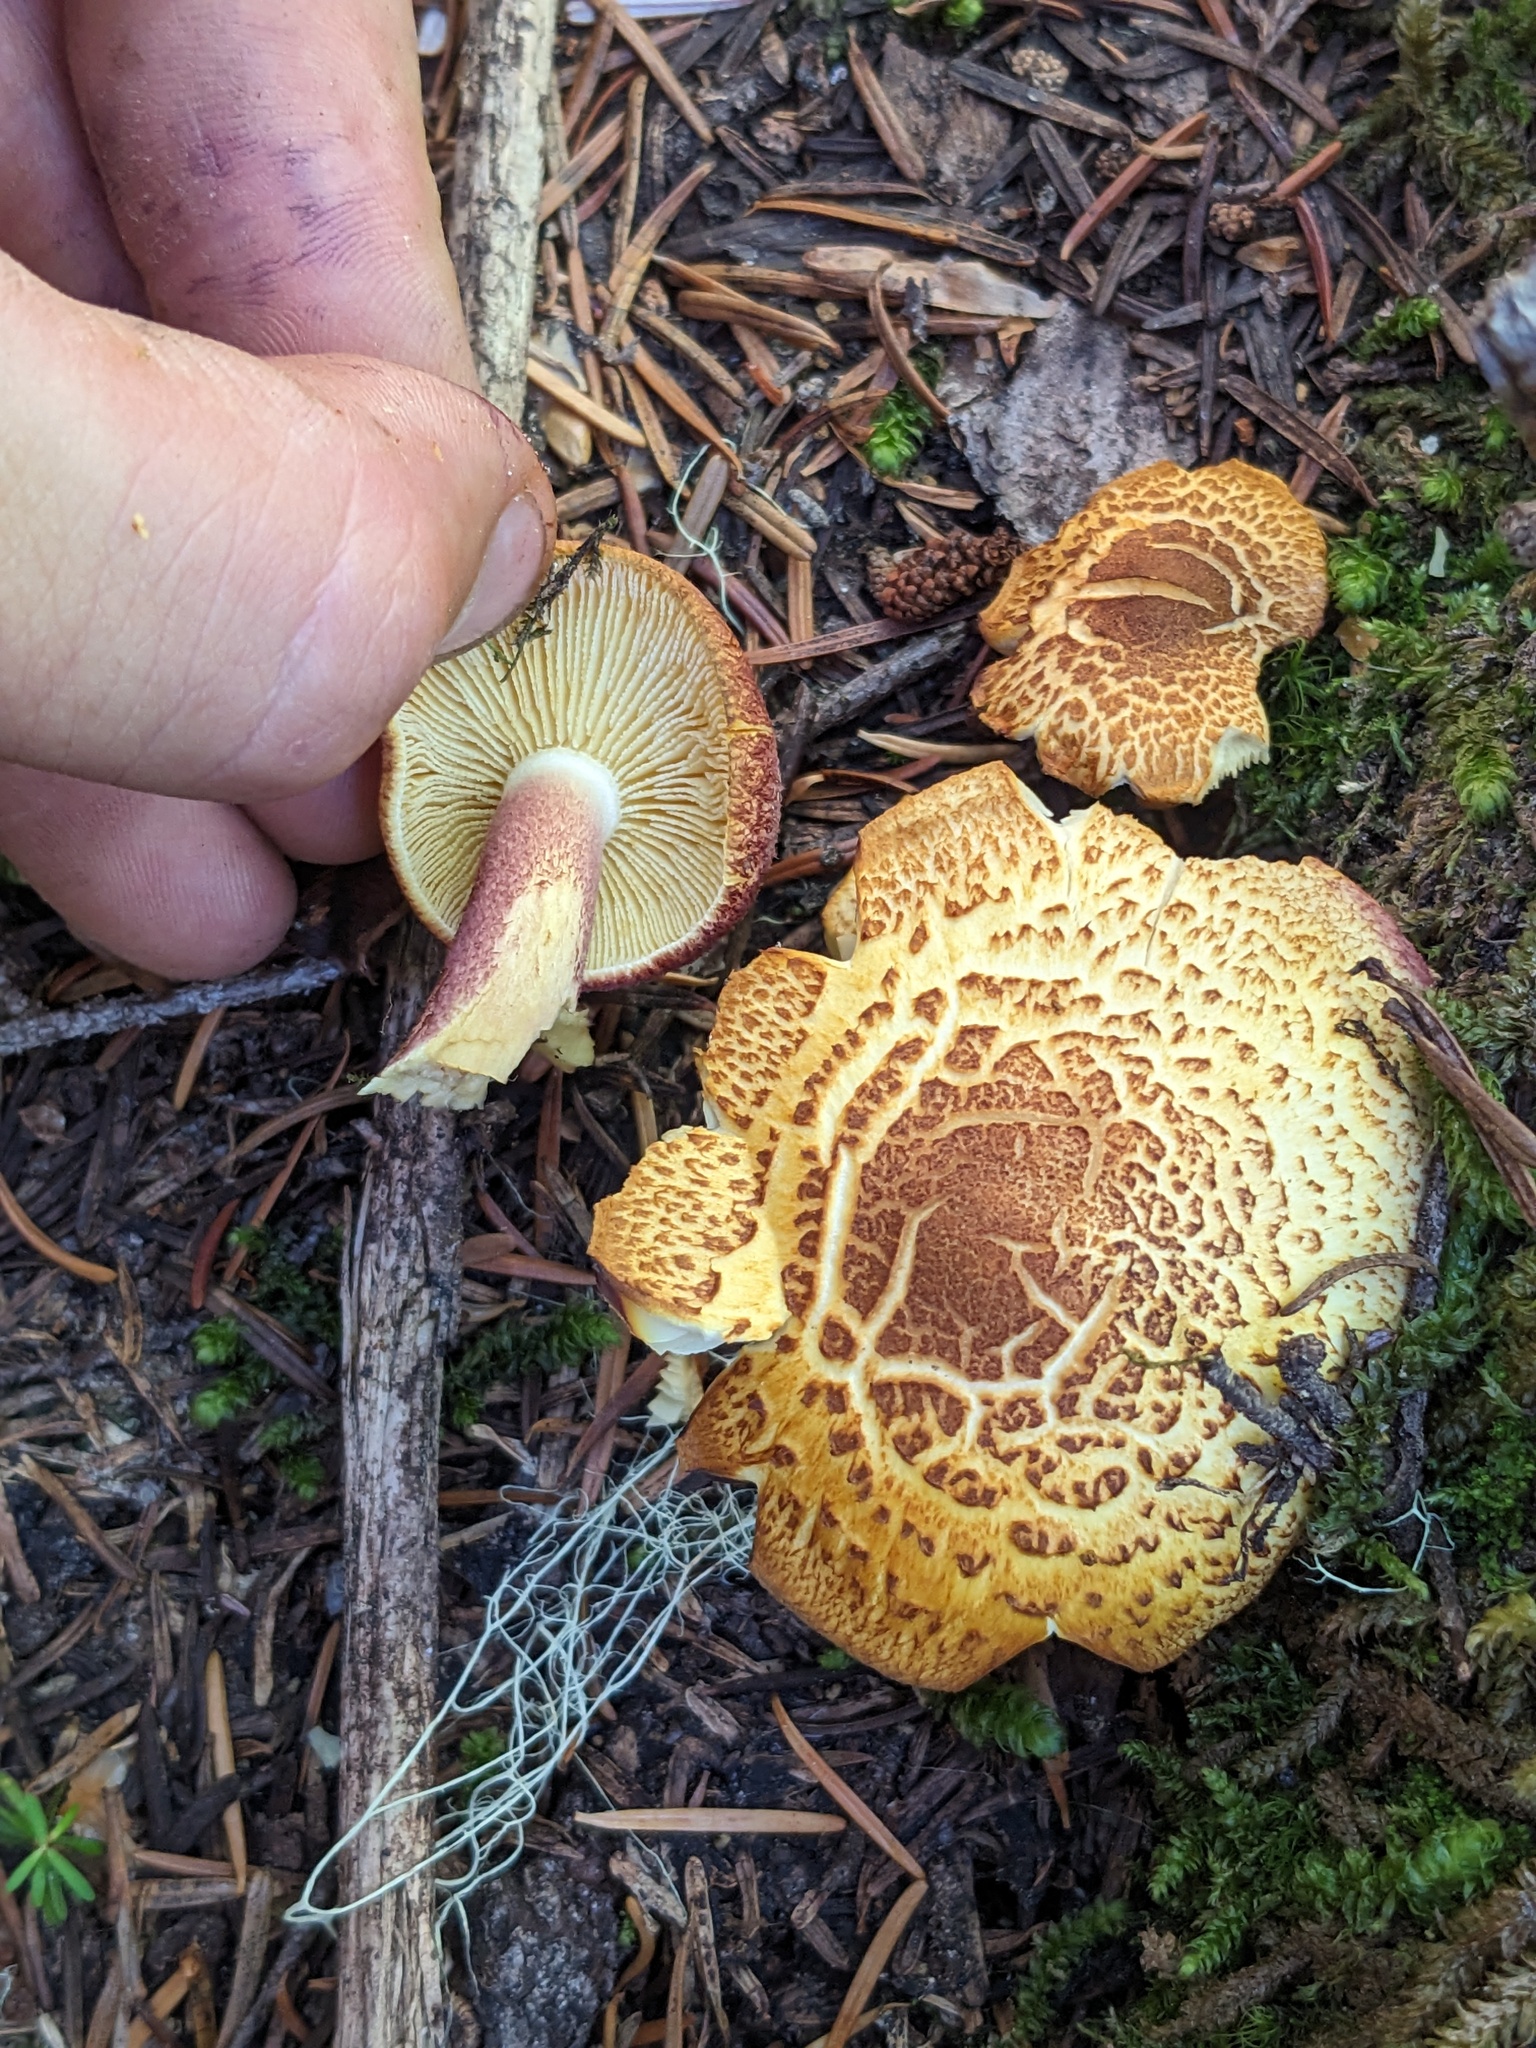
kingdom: Fungi
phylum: Basidiomycota
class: Agaricomycetes
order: Agaricales
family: Tricholomataceae
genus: Tricholomopsis
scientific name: Tricholomopsis rutilans
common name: Plums and custard
